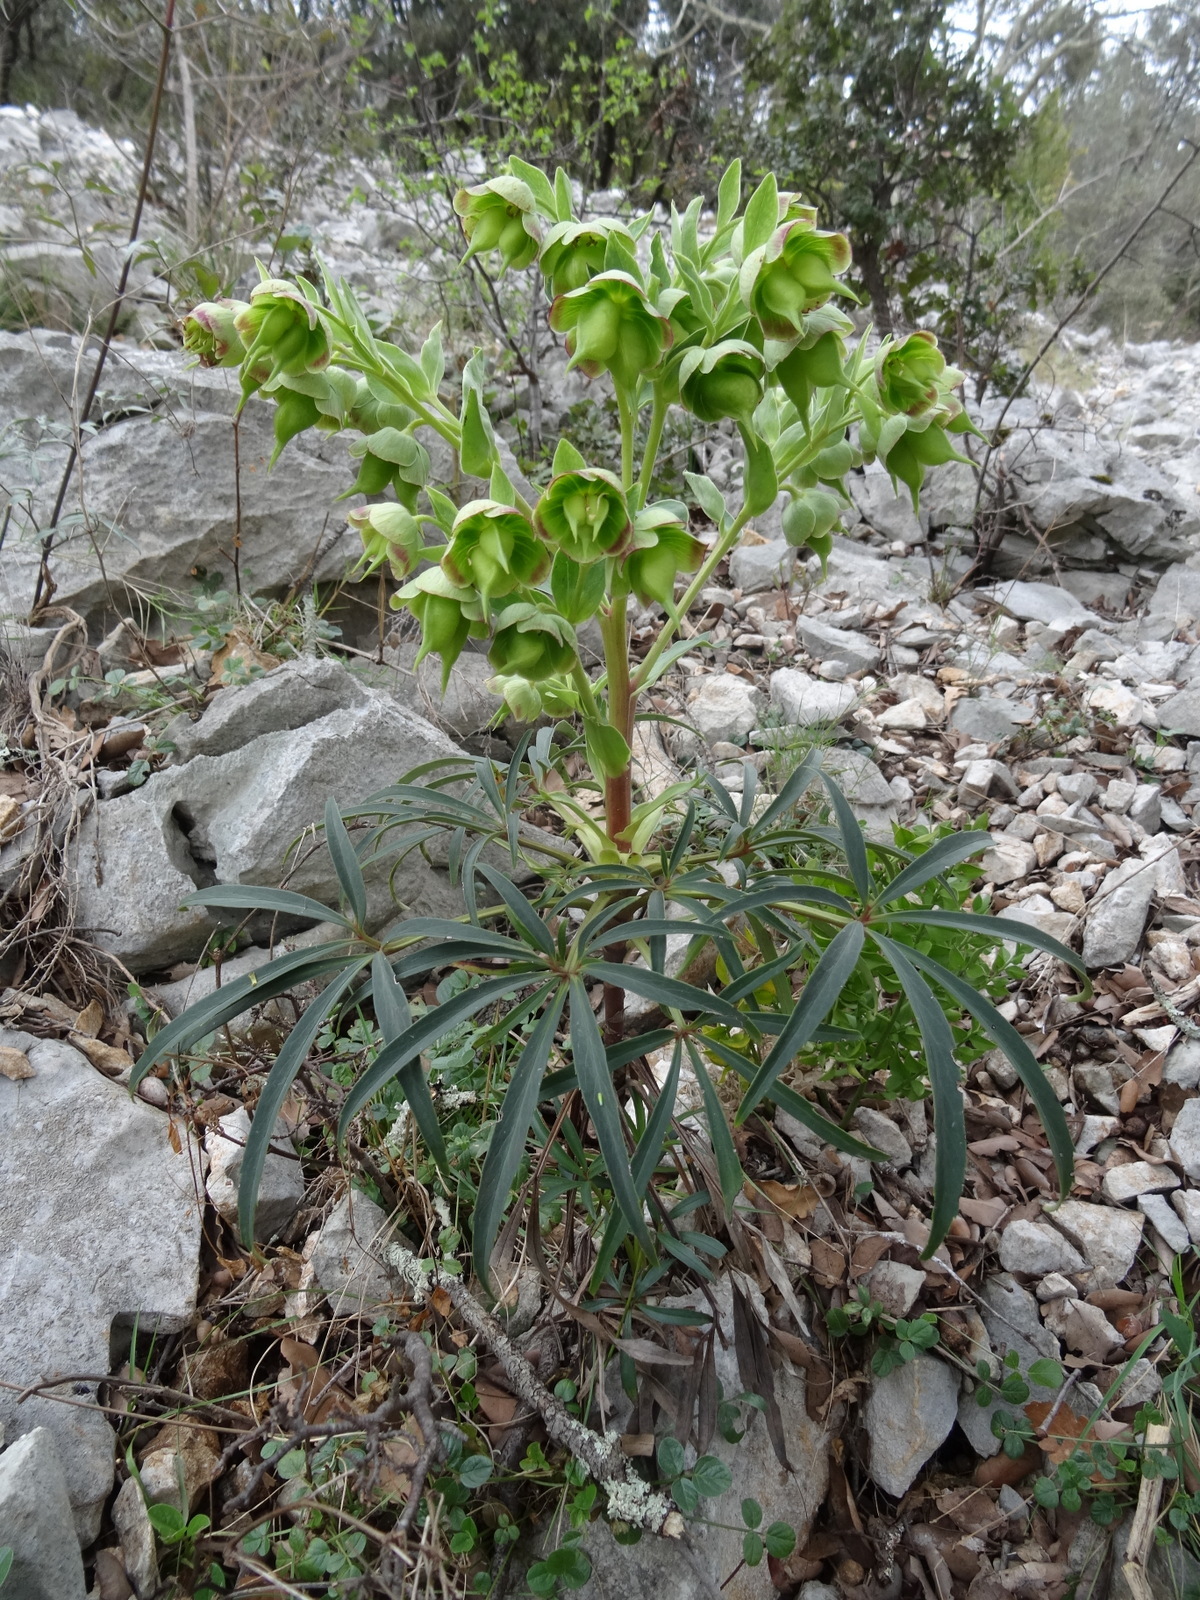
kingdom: Plantae
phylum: Tracheophyta
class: Magnoliopsida
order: Ranunculales
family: Ranunculaceae
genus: Helleborus
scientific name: Helleborus foetidus
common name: Stinking hellebore
